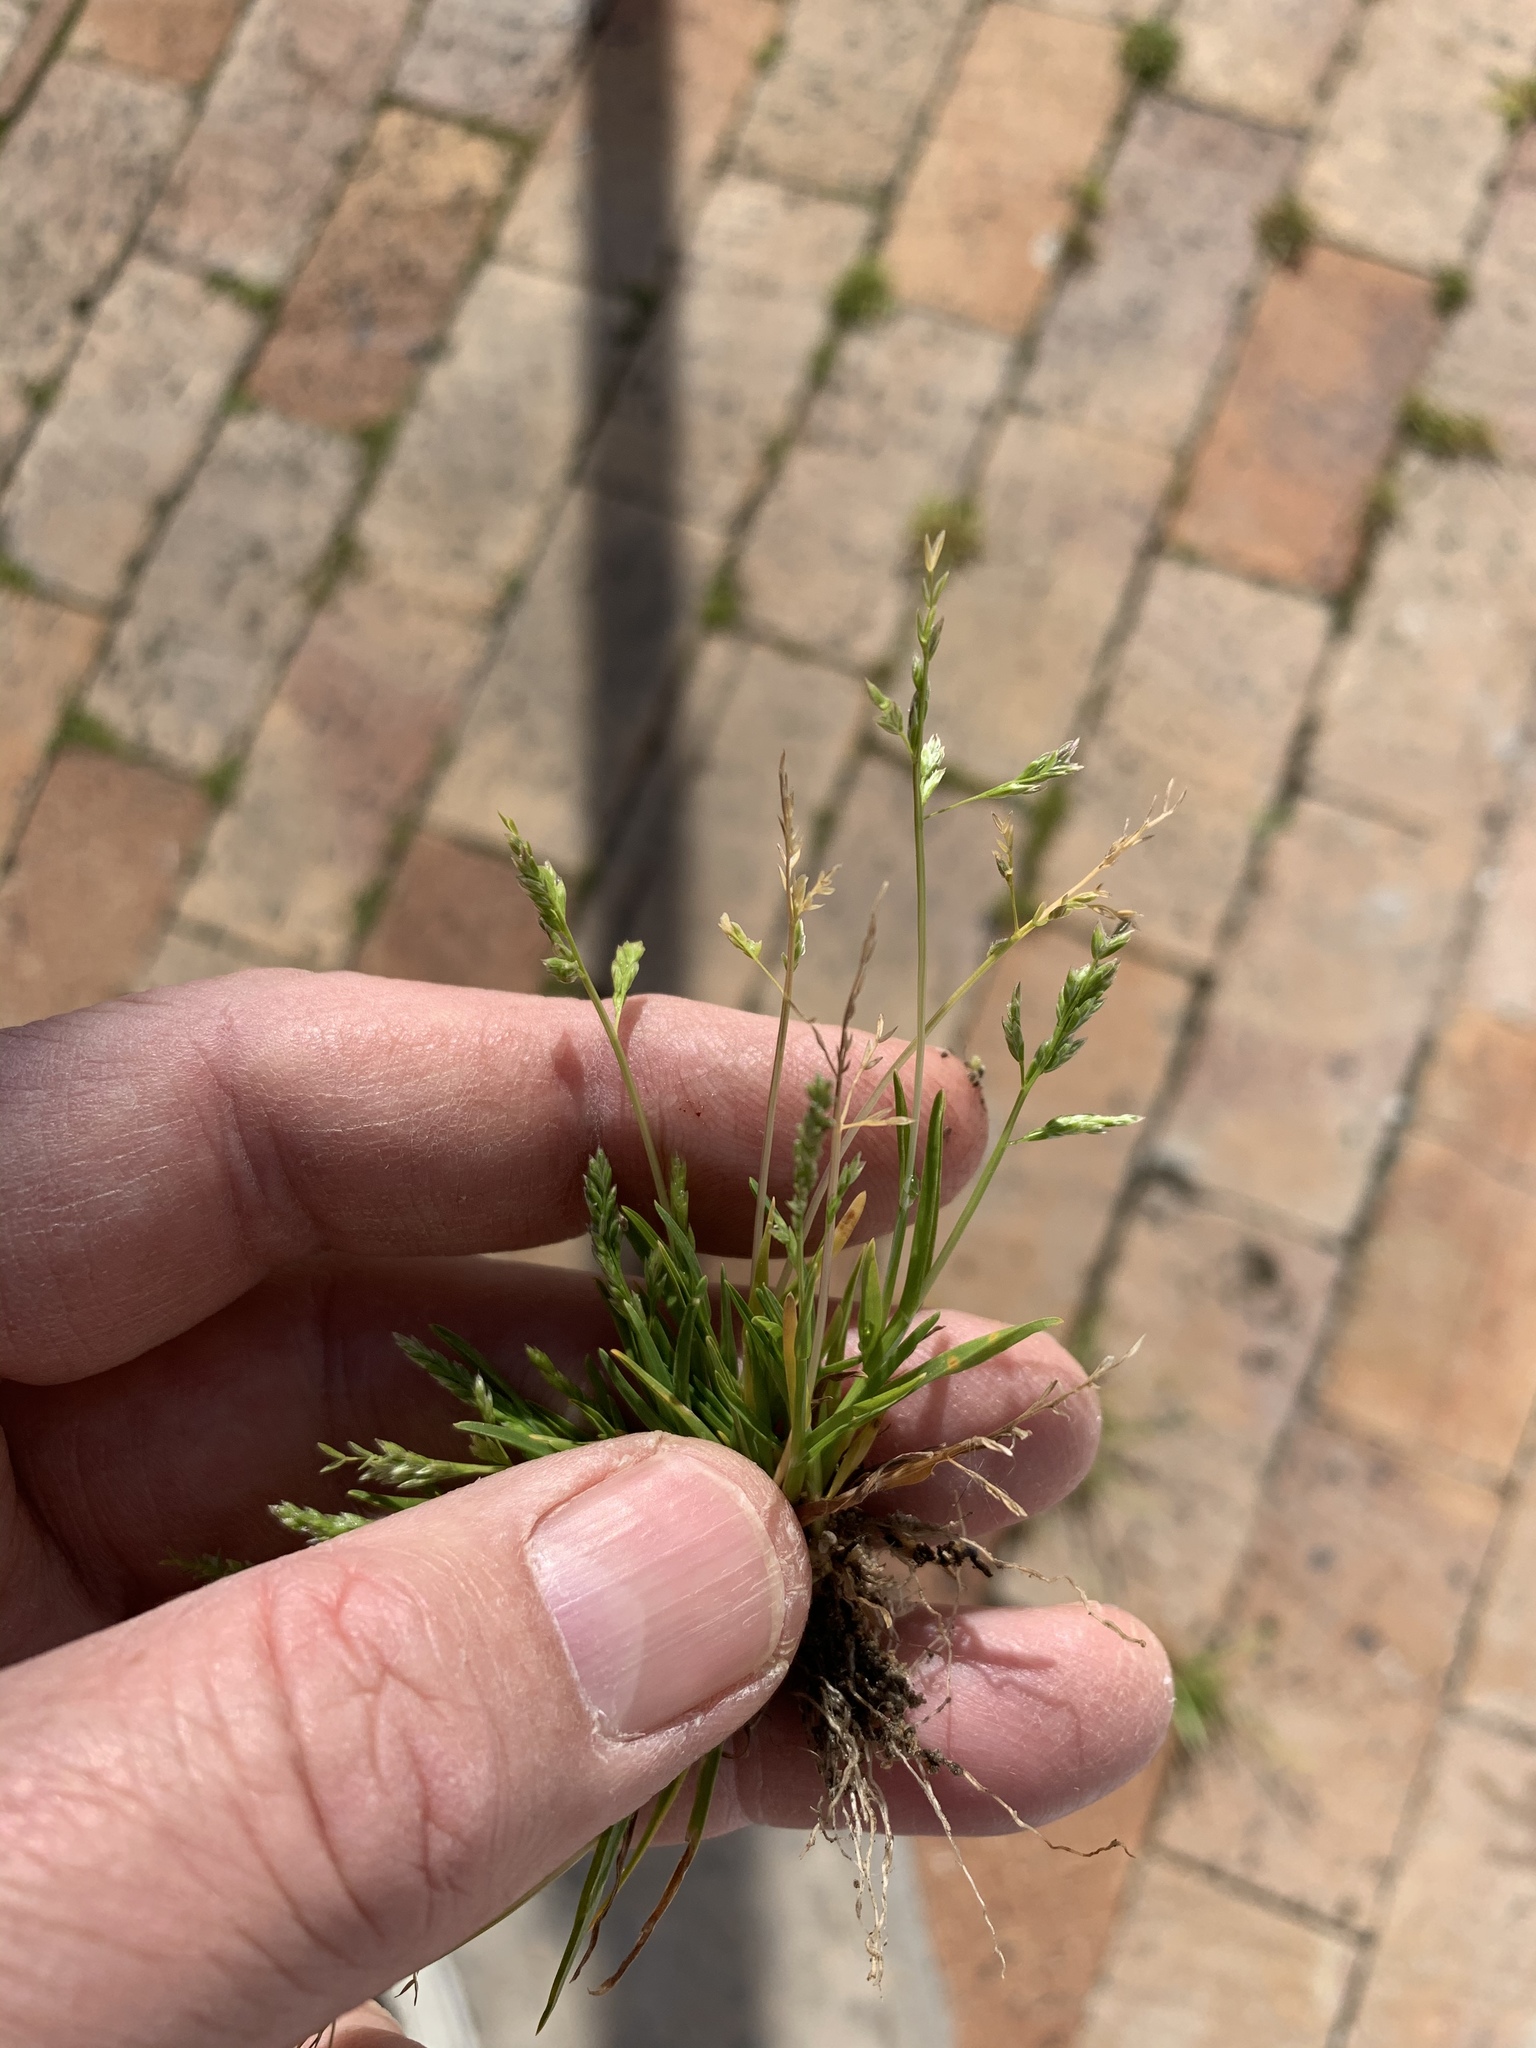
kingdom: Plantae
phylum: Tracheophyta
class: Liliopsida
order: Poales
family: Poaceae
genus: Poa
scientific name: Poa annua
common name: Annual bluegrass
